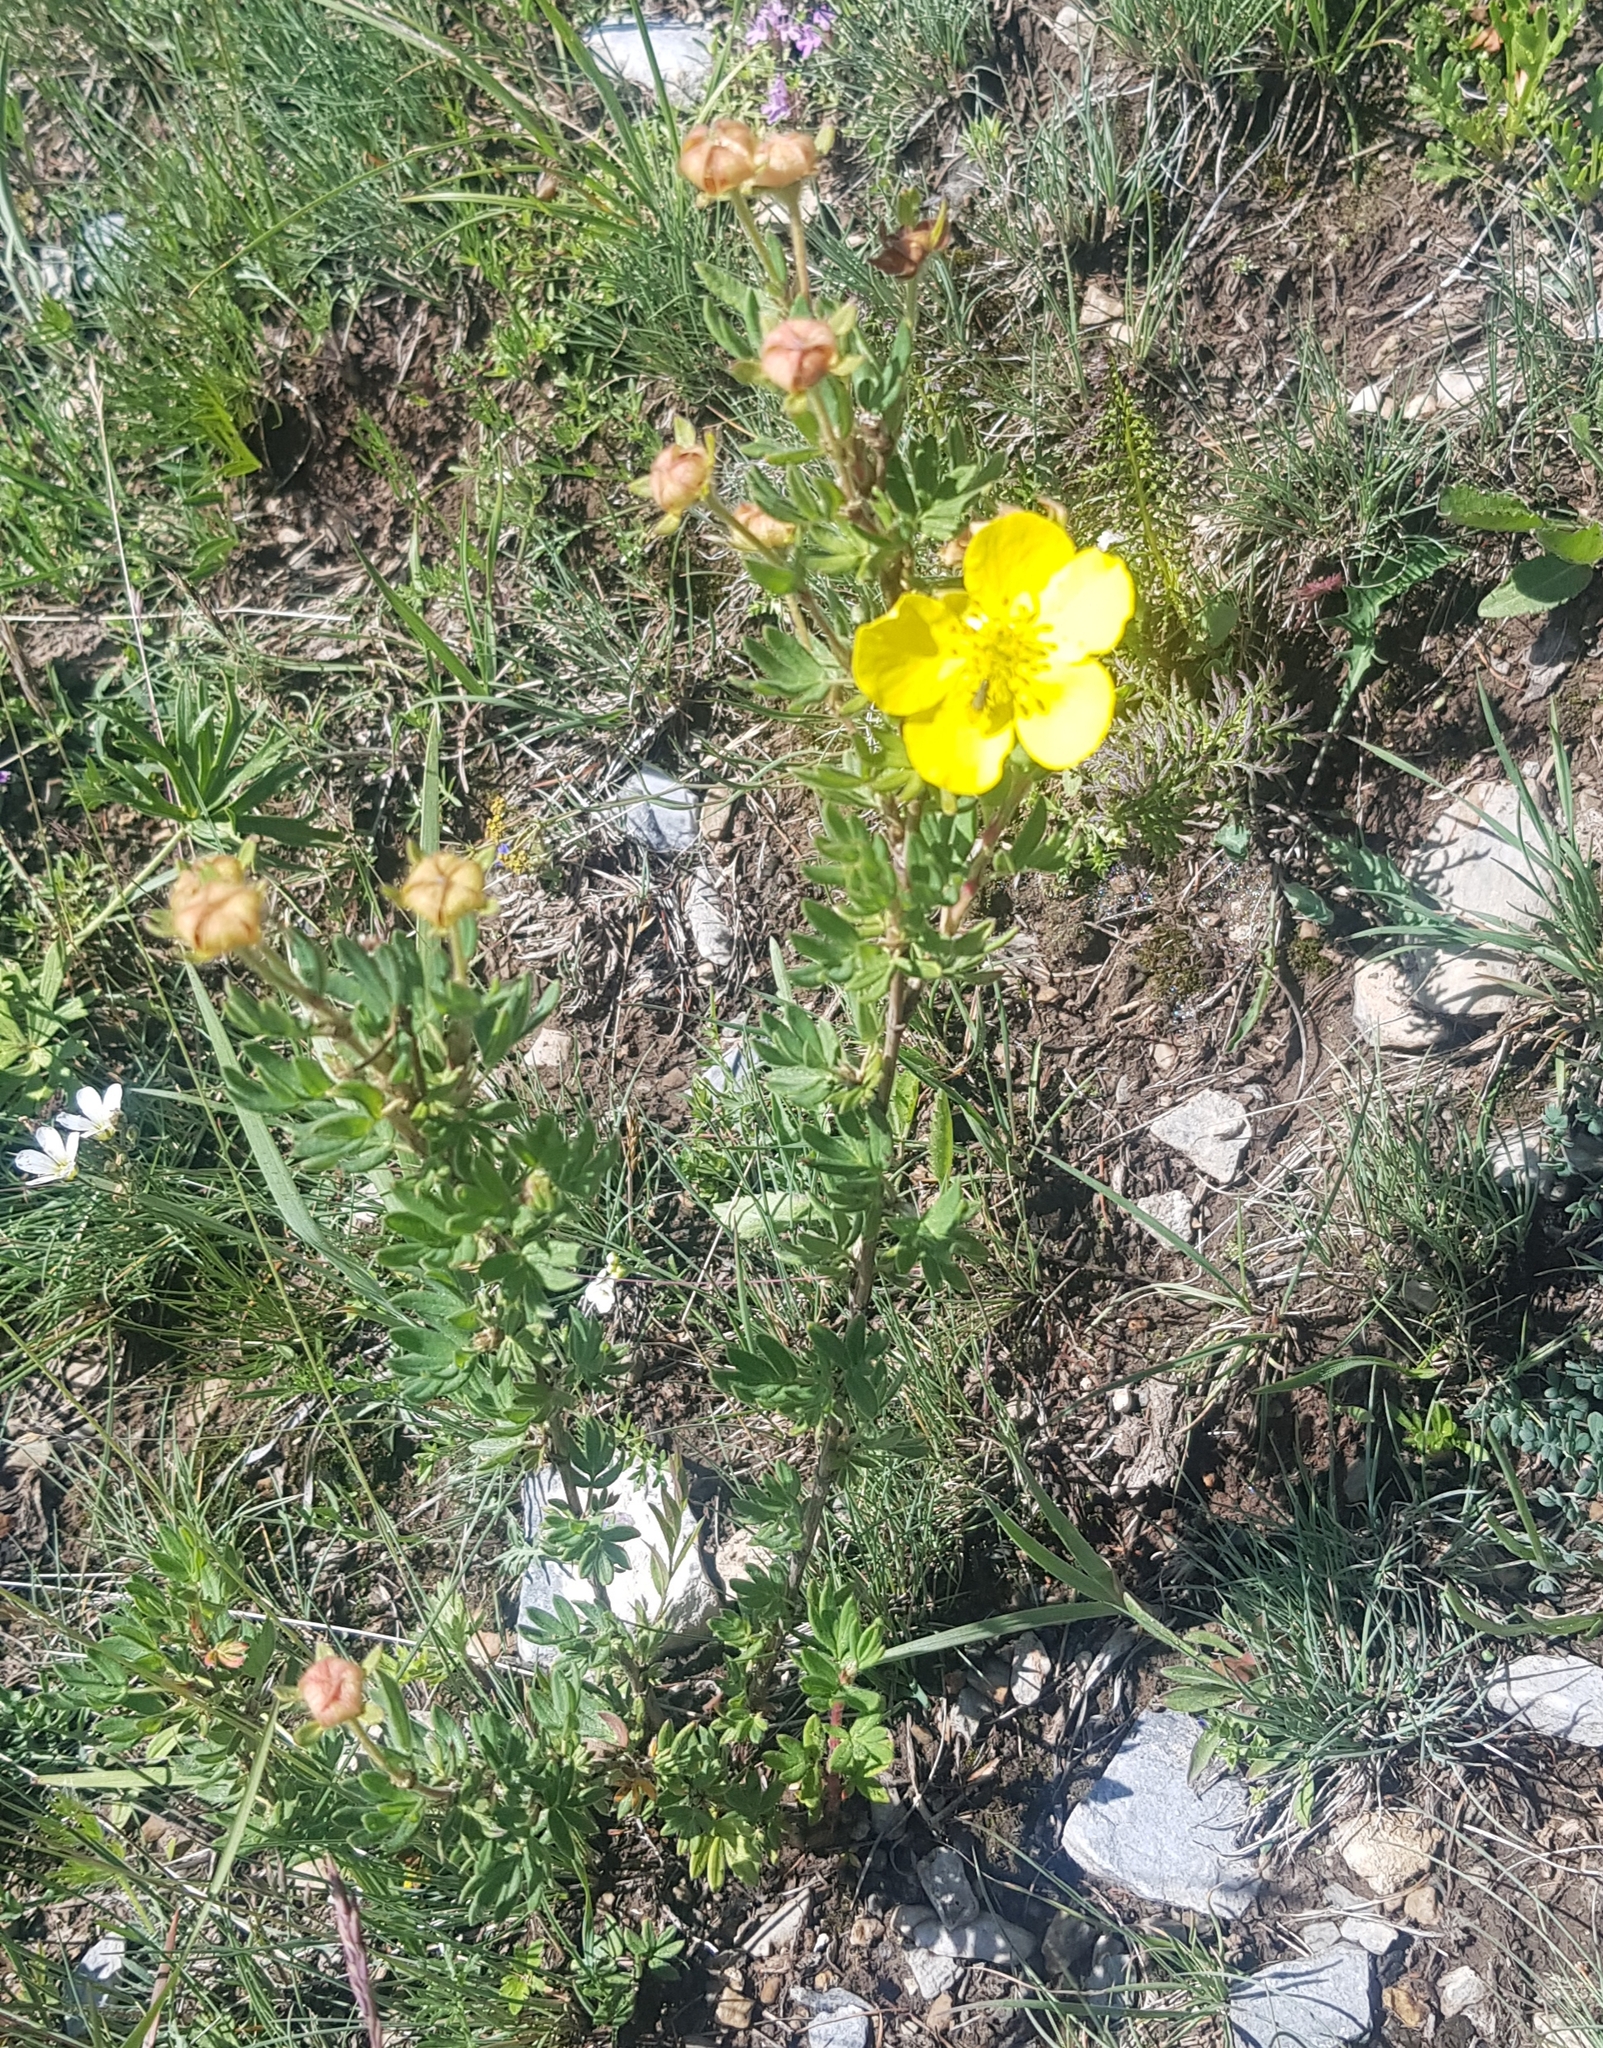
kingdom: Plantae
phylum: Tracheophyta
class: Magnoliopsida
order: Rosales
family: Rosaceae
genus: Dasiphora
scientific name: Dasiphora fruticosa
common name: Shrubby cinquefoil
